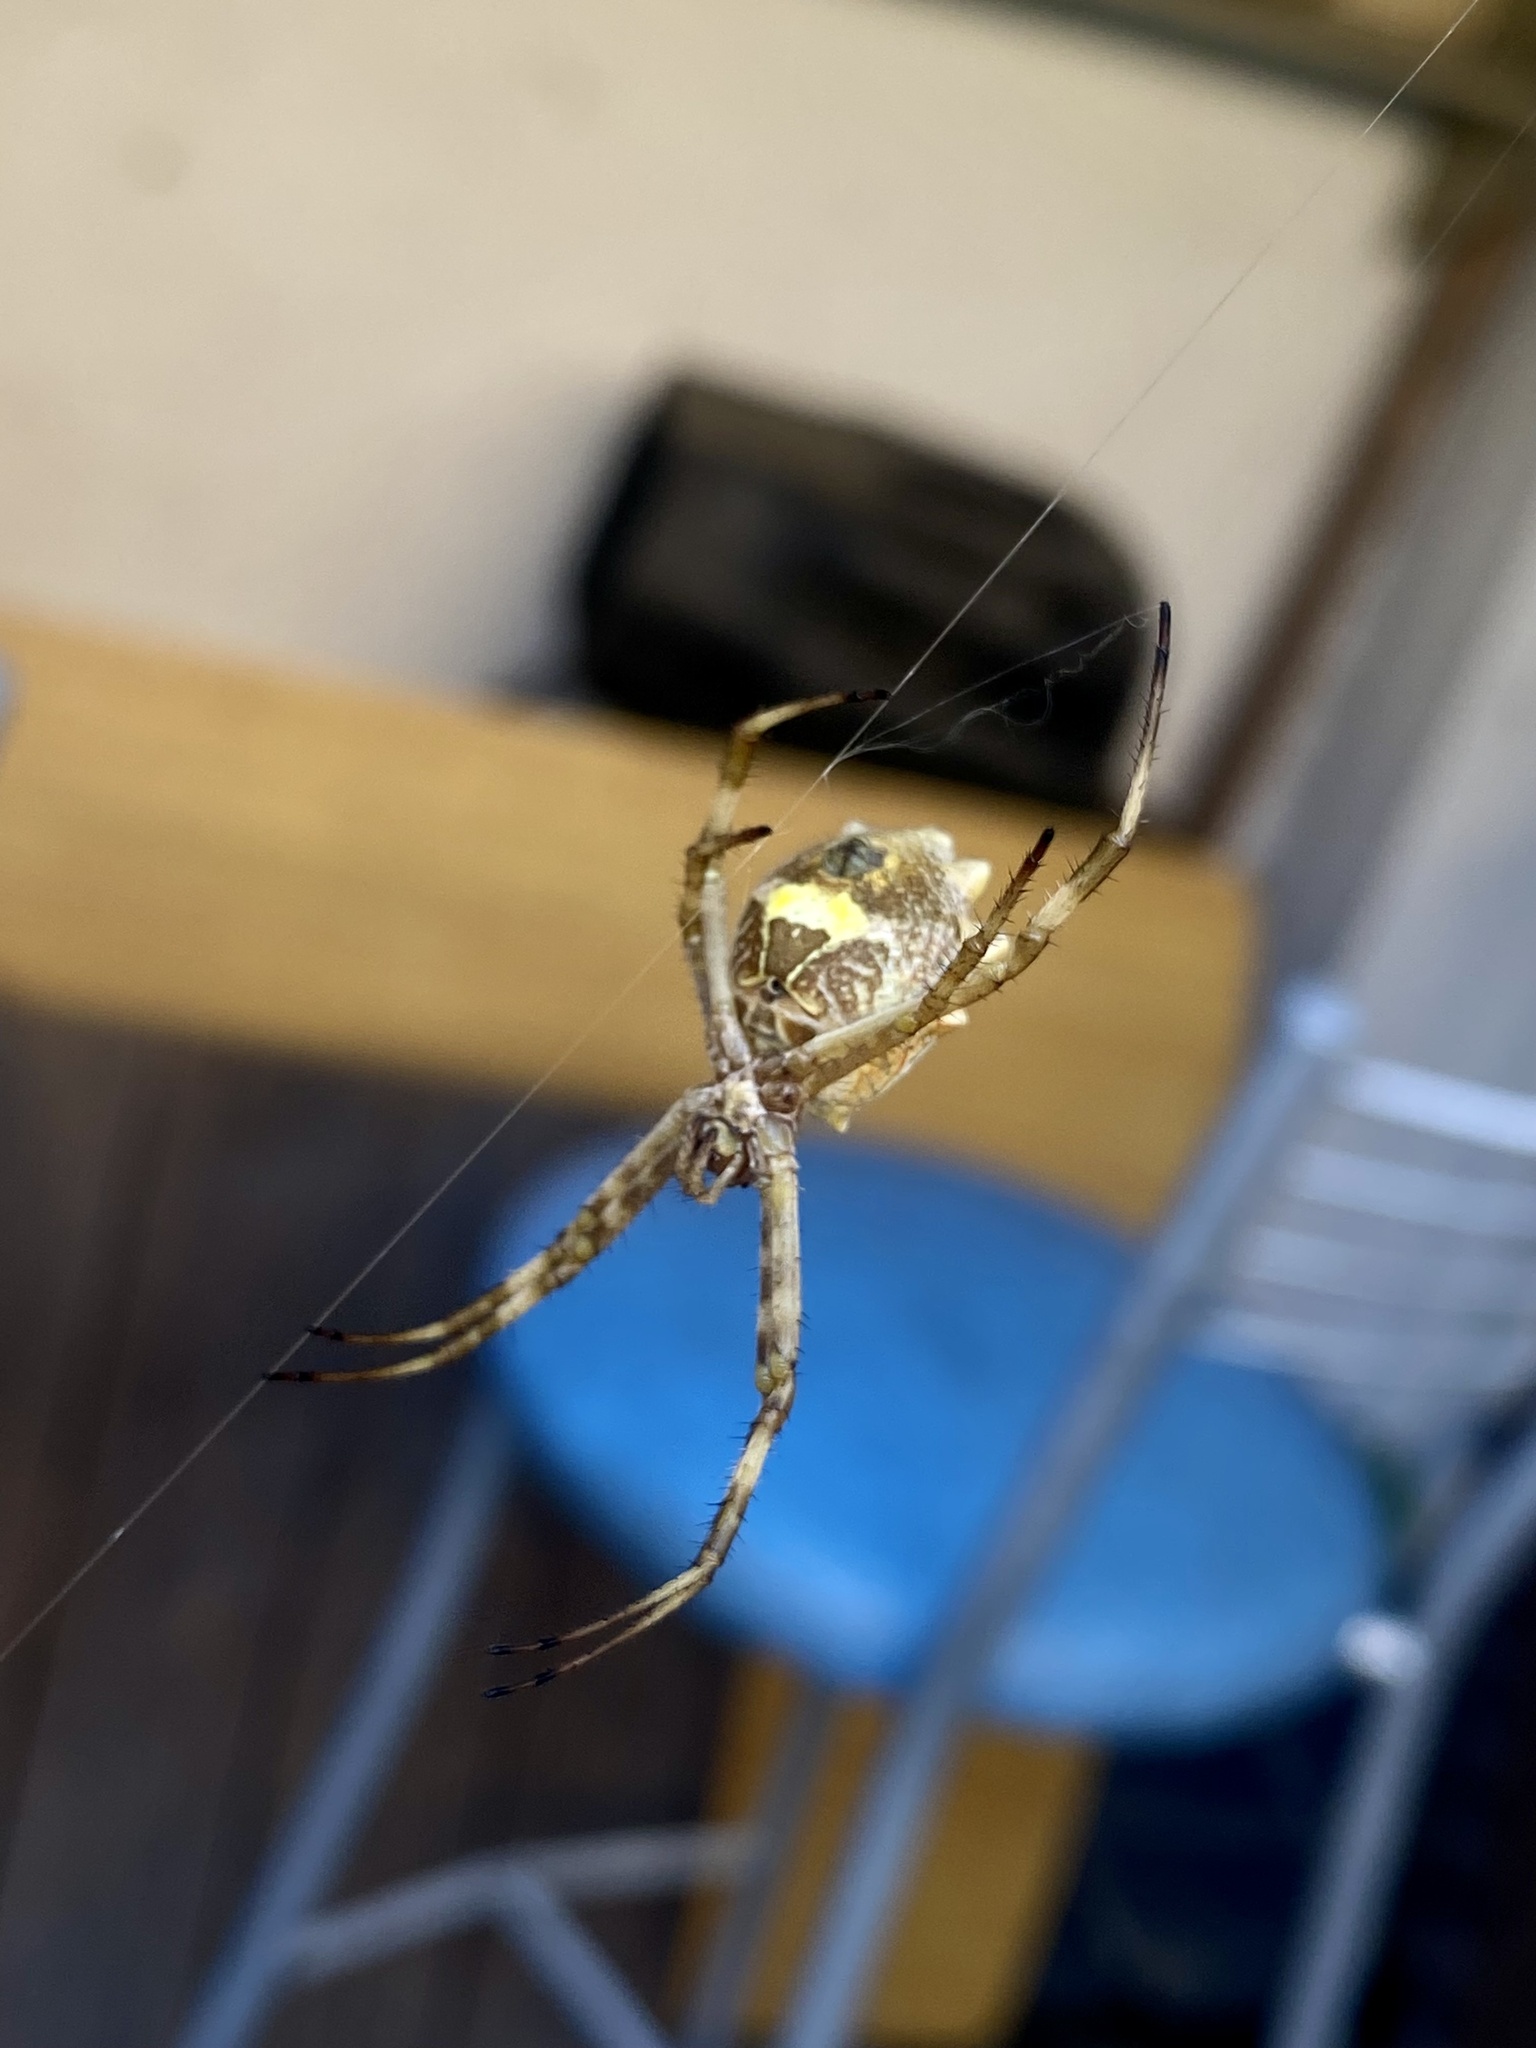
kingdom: Animalia
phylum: Arthropoda
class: Arachnida
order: Araneae
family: Araneidae
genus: Argiope
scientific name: Argiope argentata
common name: Orb weavers
